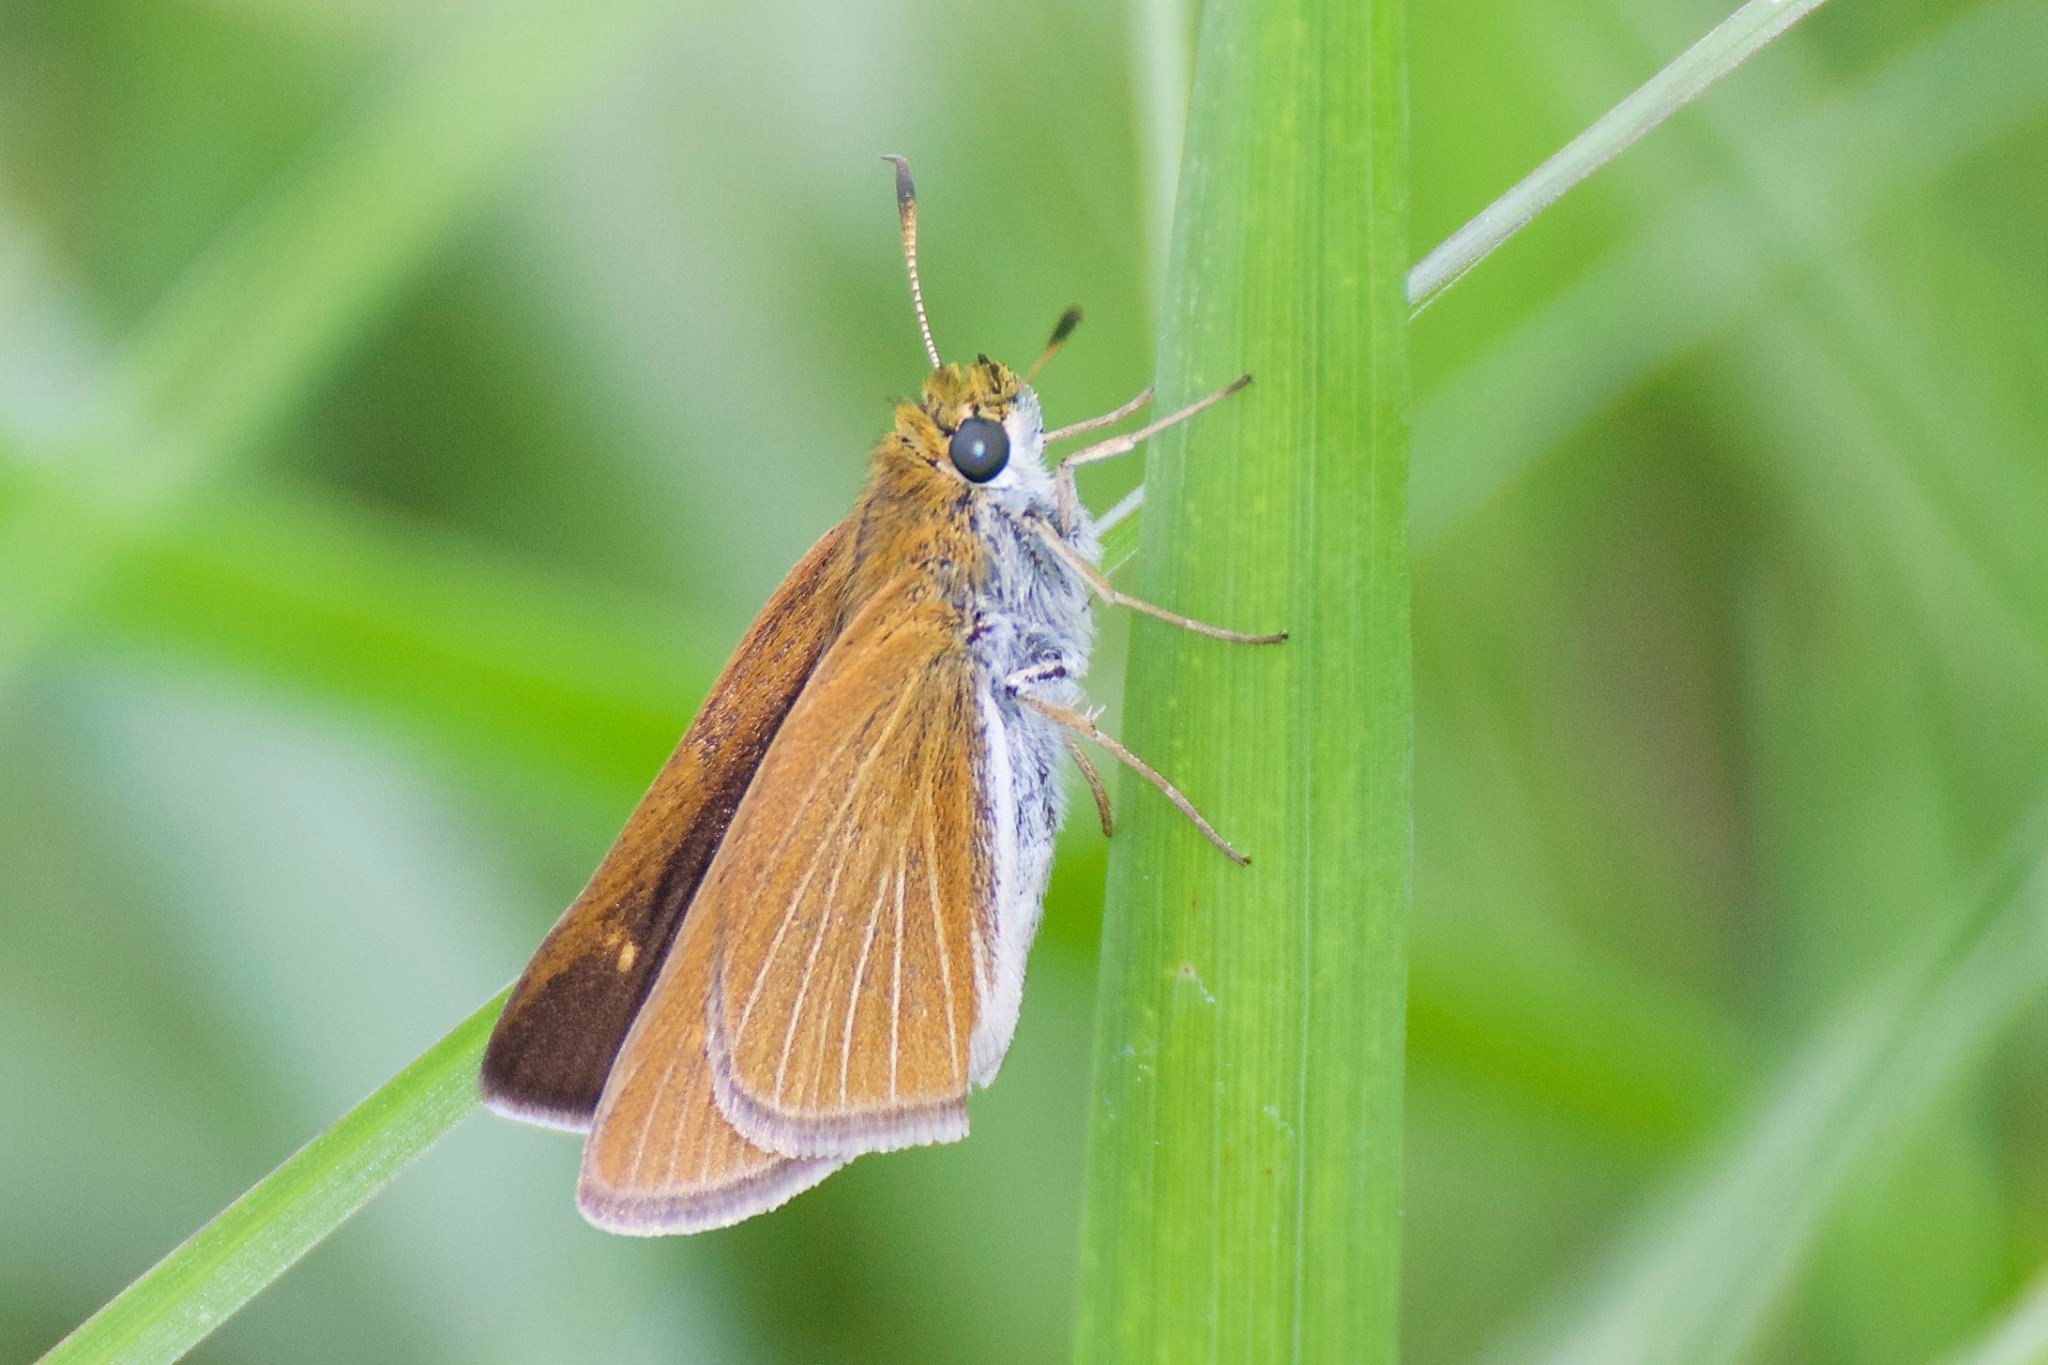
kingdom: Animalia
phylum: Arthropoda
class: Insecta
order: Lepidoptera
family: Hesperiidae
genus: Euphyes
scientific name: Euphyes bimacula
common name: Two-spotted skipper
